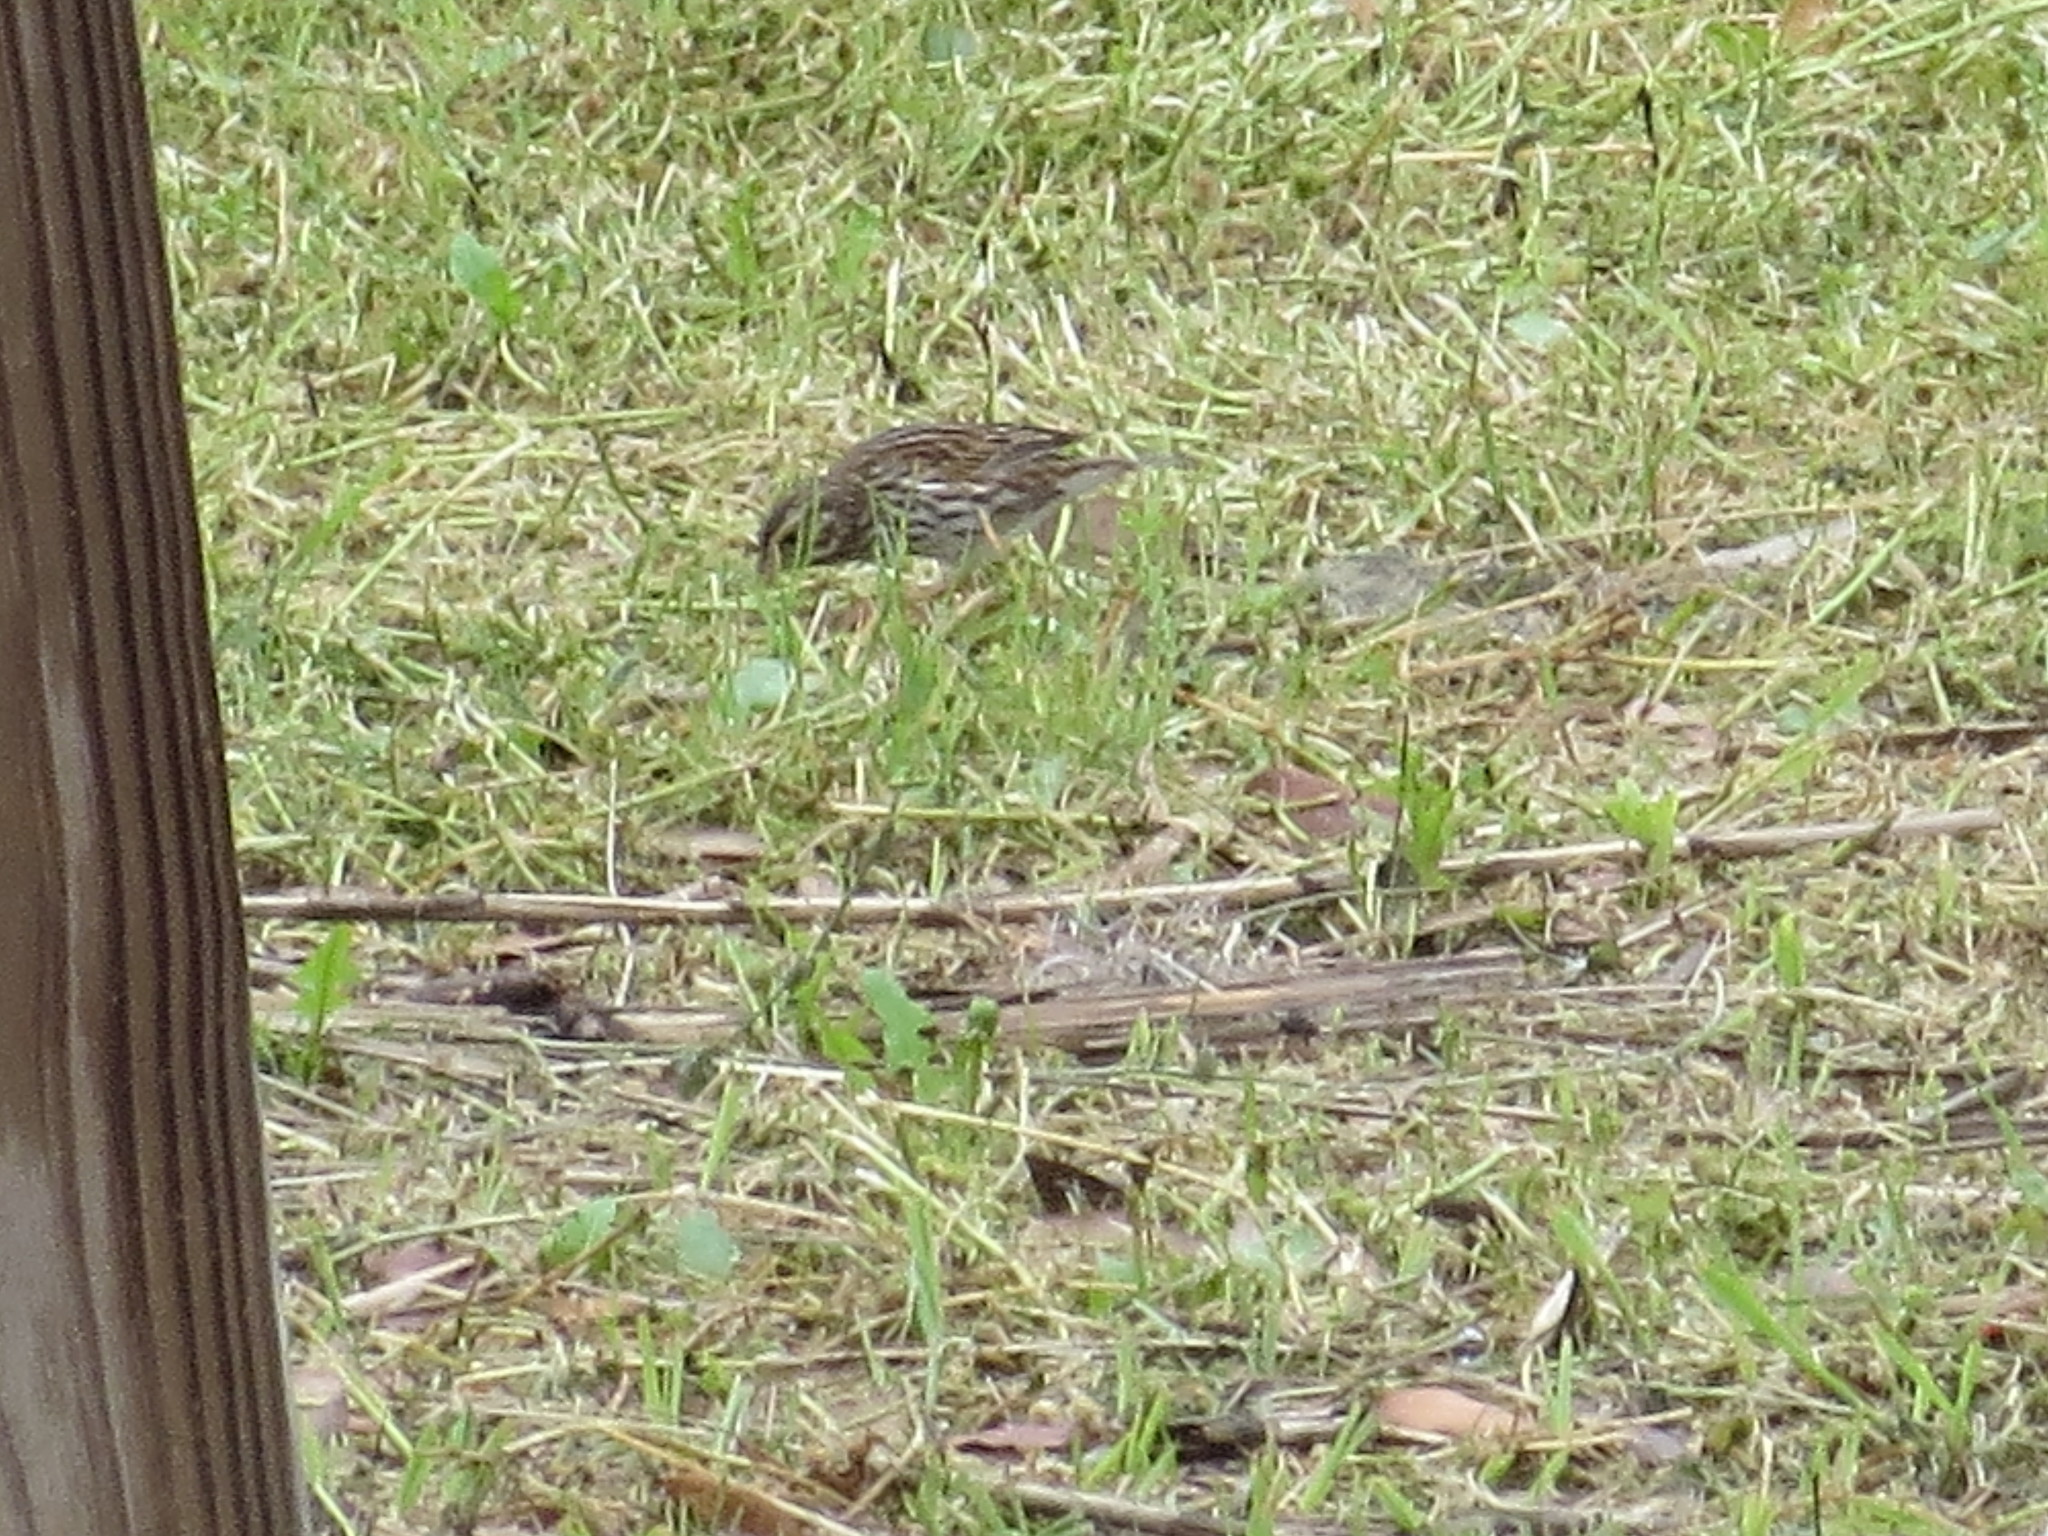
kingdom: Animalia
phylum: Chordata
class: Aves
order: Passeriformes
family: Passerellidae
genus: Passerculus
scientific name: Passerculus sandwichensis
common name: Savannah sparrow
